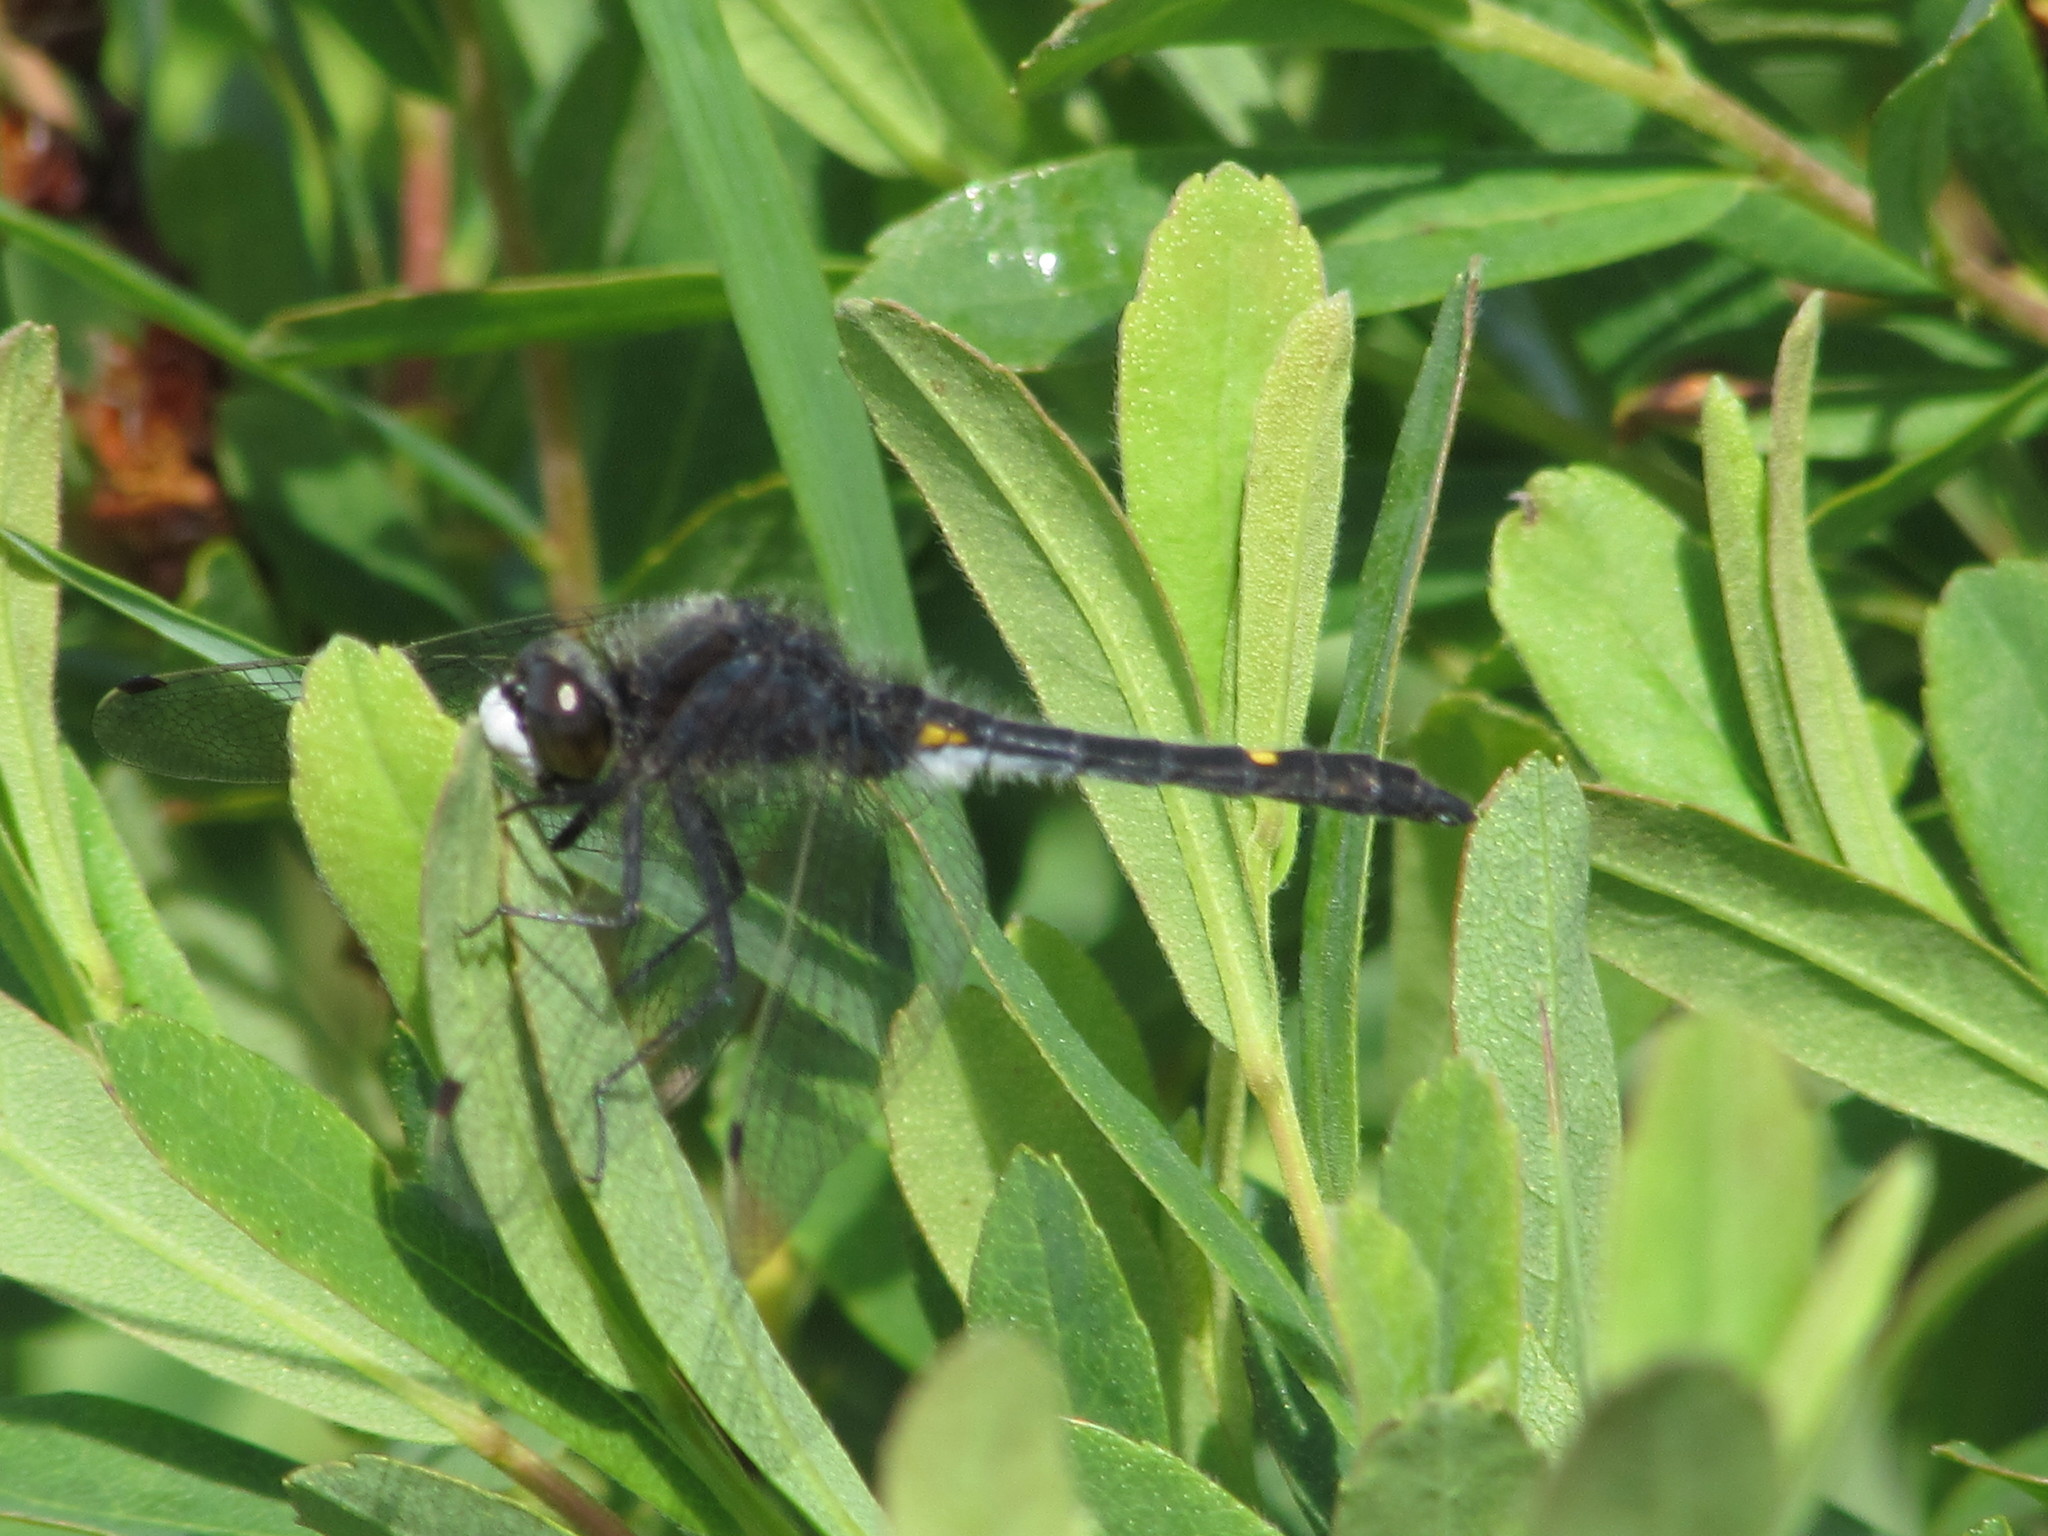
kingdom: Animalia
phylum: Arthropoda
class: Insecta
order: Odonata
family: Libellulidae
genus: Leucorrhinia
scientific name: Leucorrhinia intacta
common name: Dot-tailed whiteface
